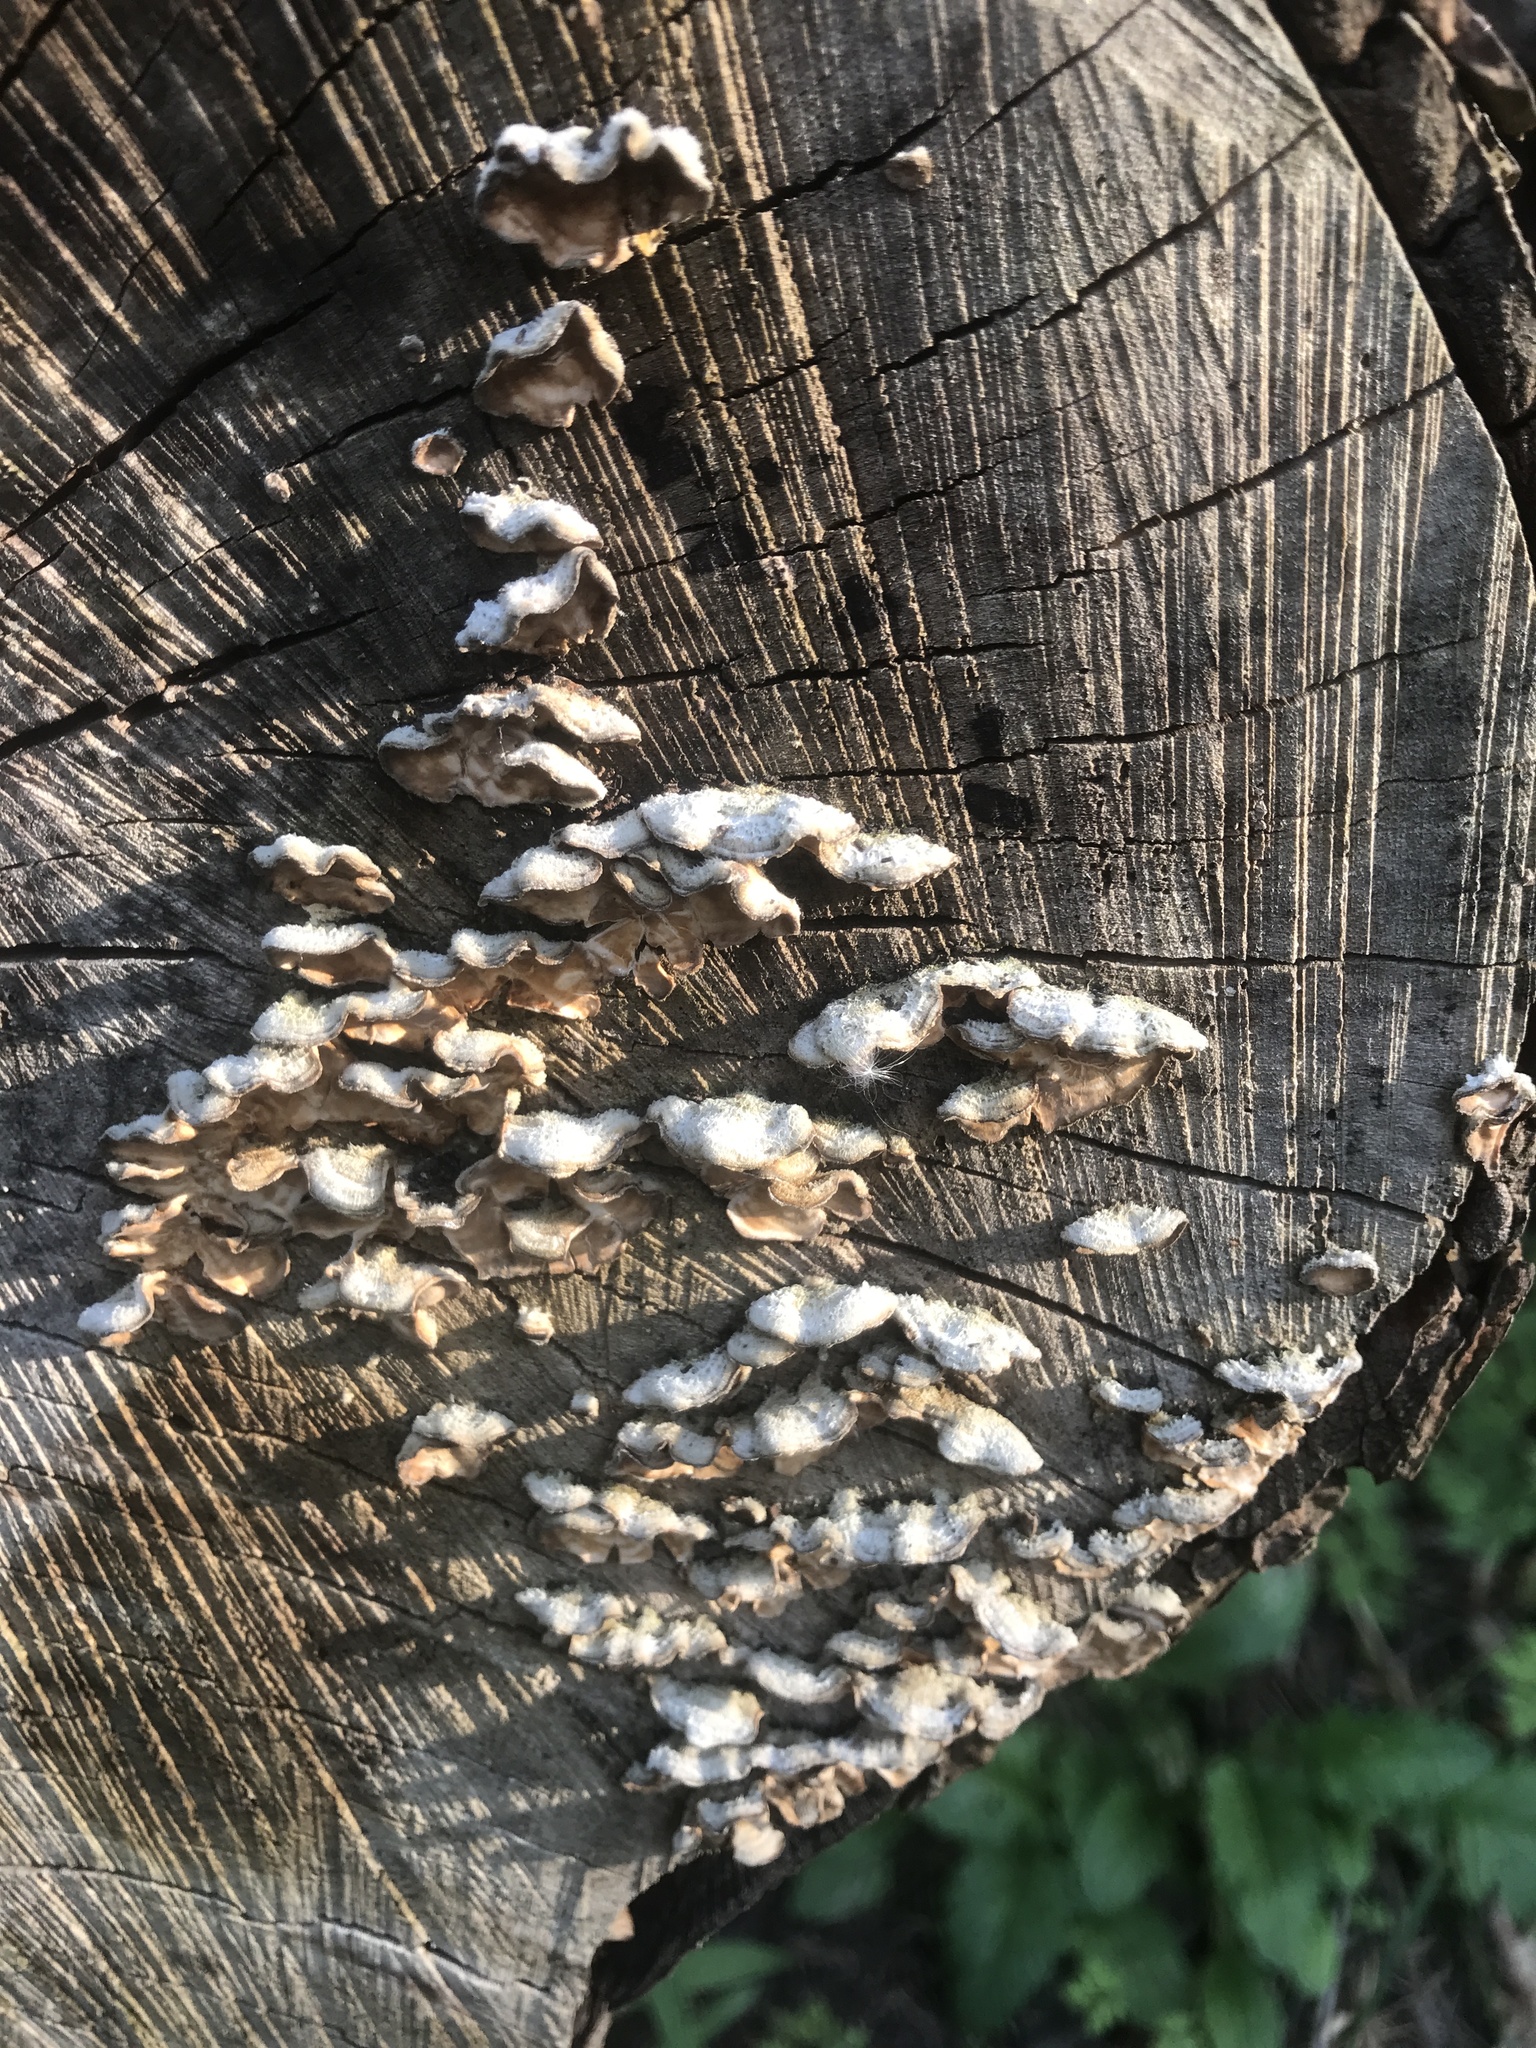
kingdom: Fungi
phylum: Basidiomycota
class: Agaricomycetes
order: Russulales
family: Stereaceae
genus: Stereum
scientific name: Stereum hirsutum
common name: Hairy curtain crust
